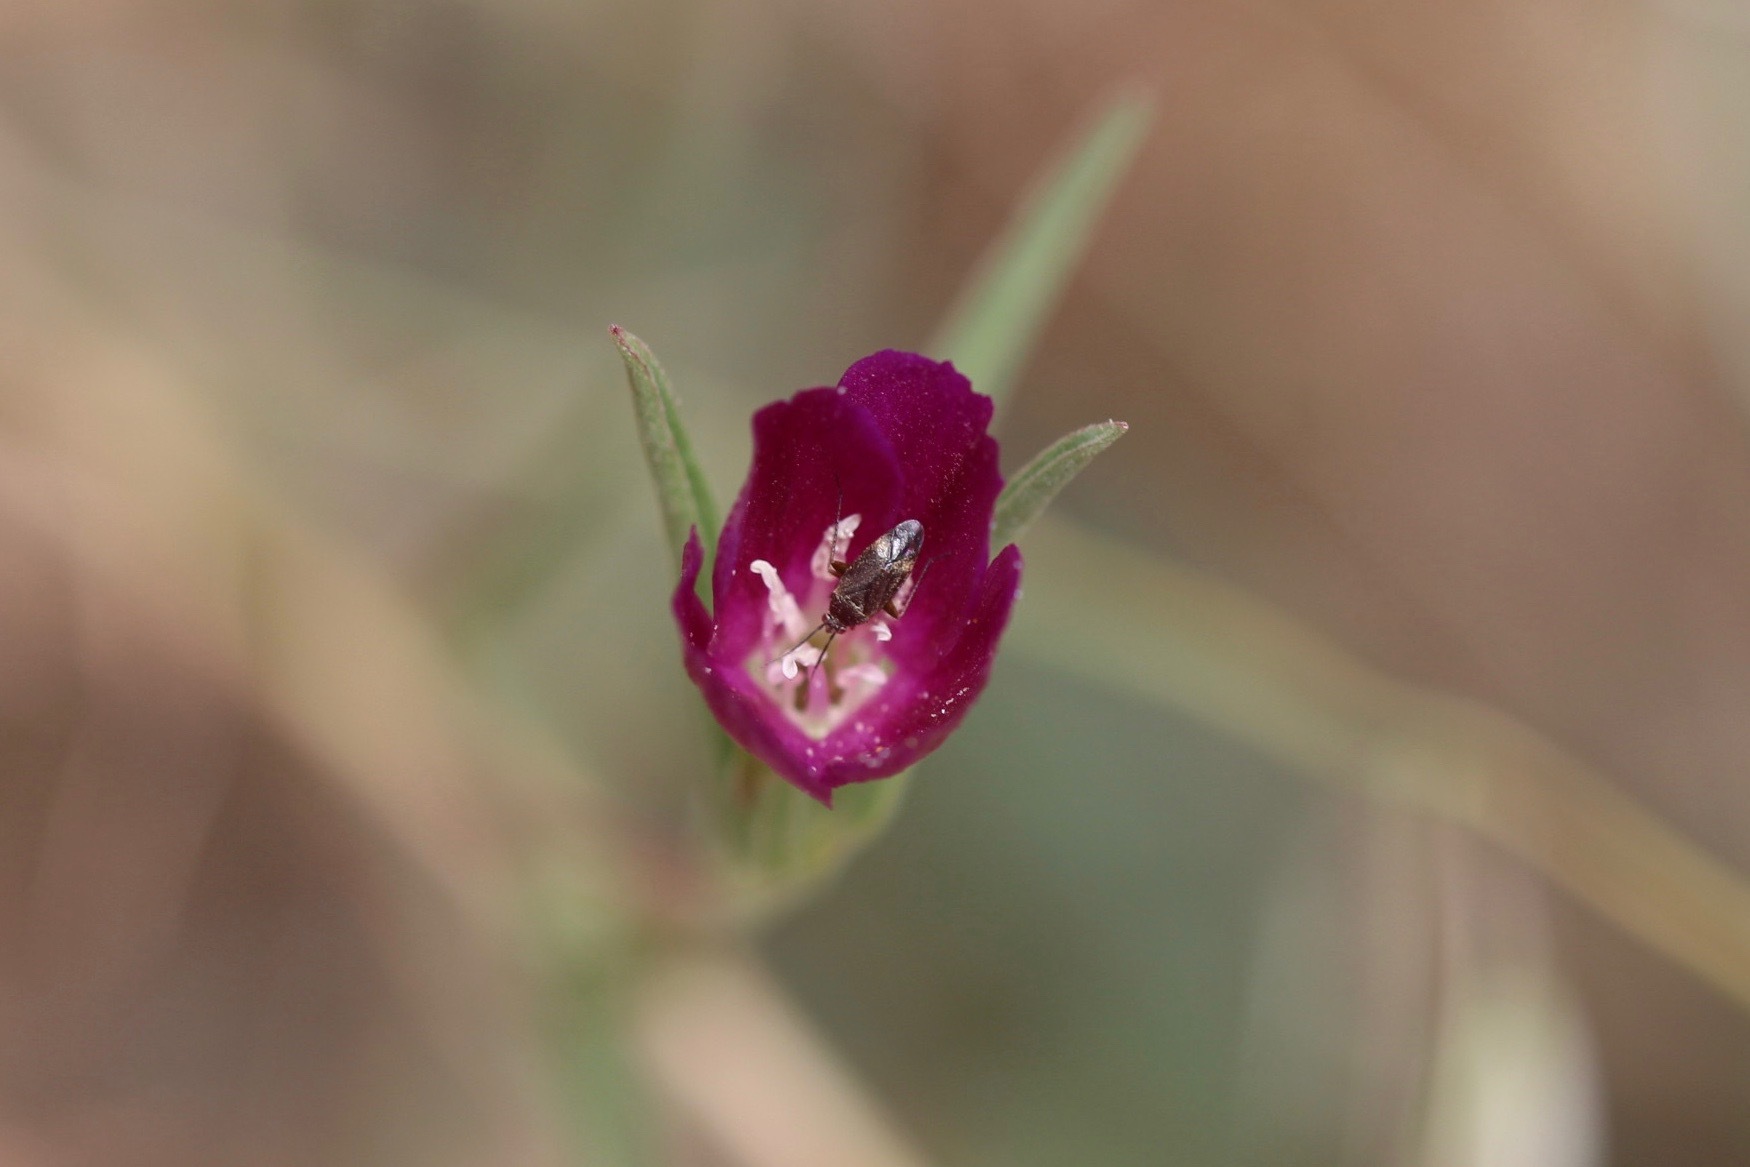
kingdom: Plantae
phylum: Tracheophyta
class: Magnoliopsida
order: Myrtales
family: Onagraceae
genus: Clarkia
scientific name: Clarkia purpurea
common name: Purple clarkia
